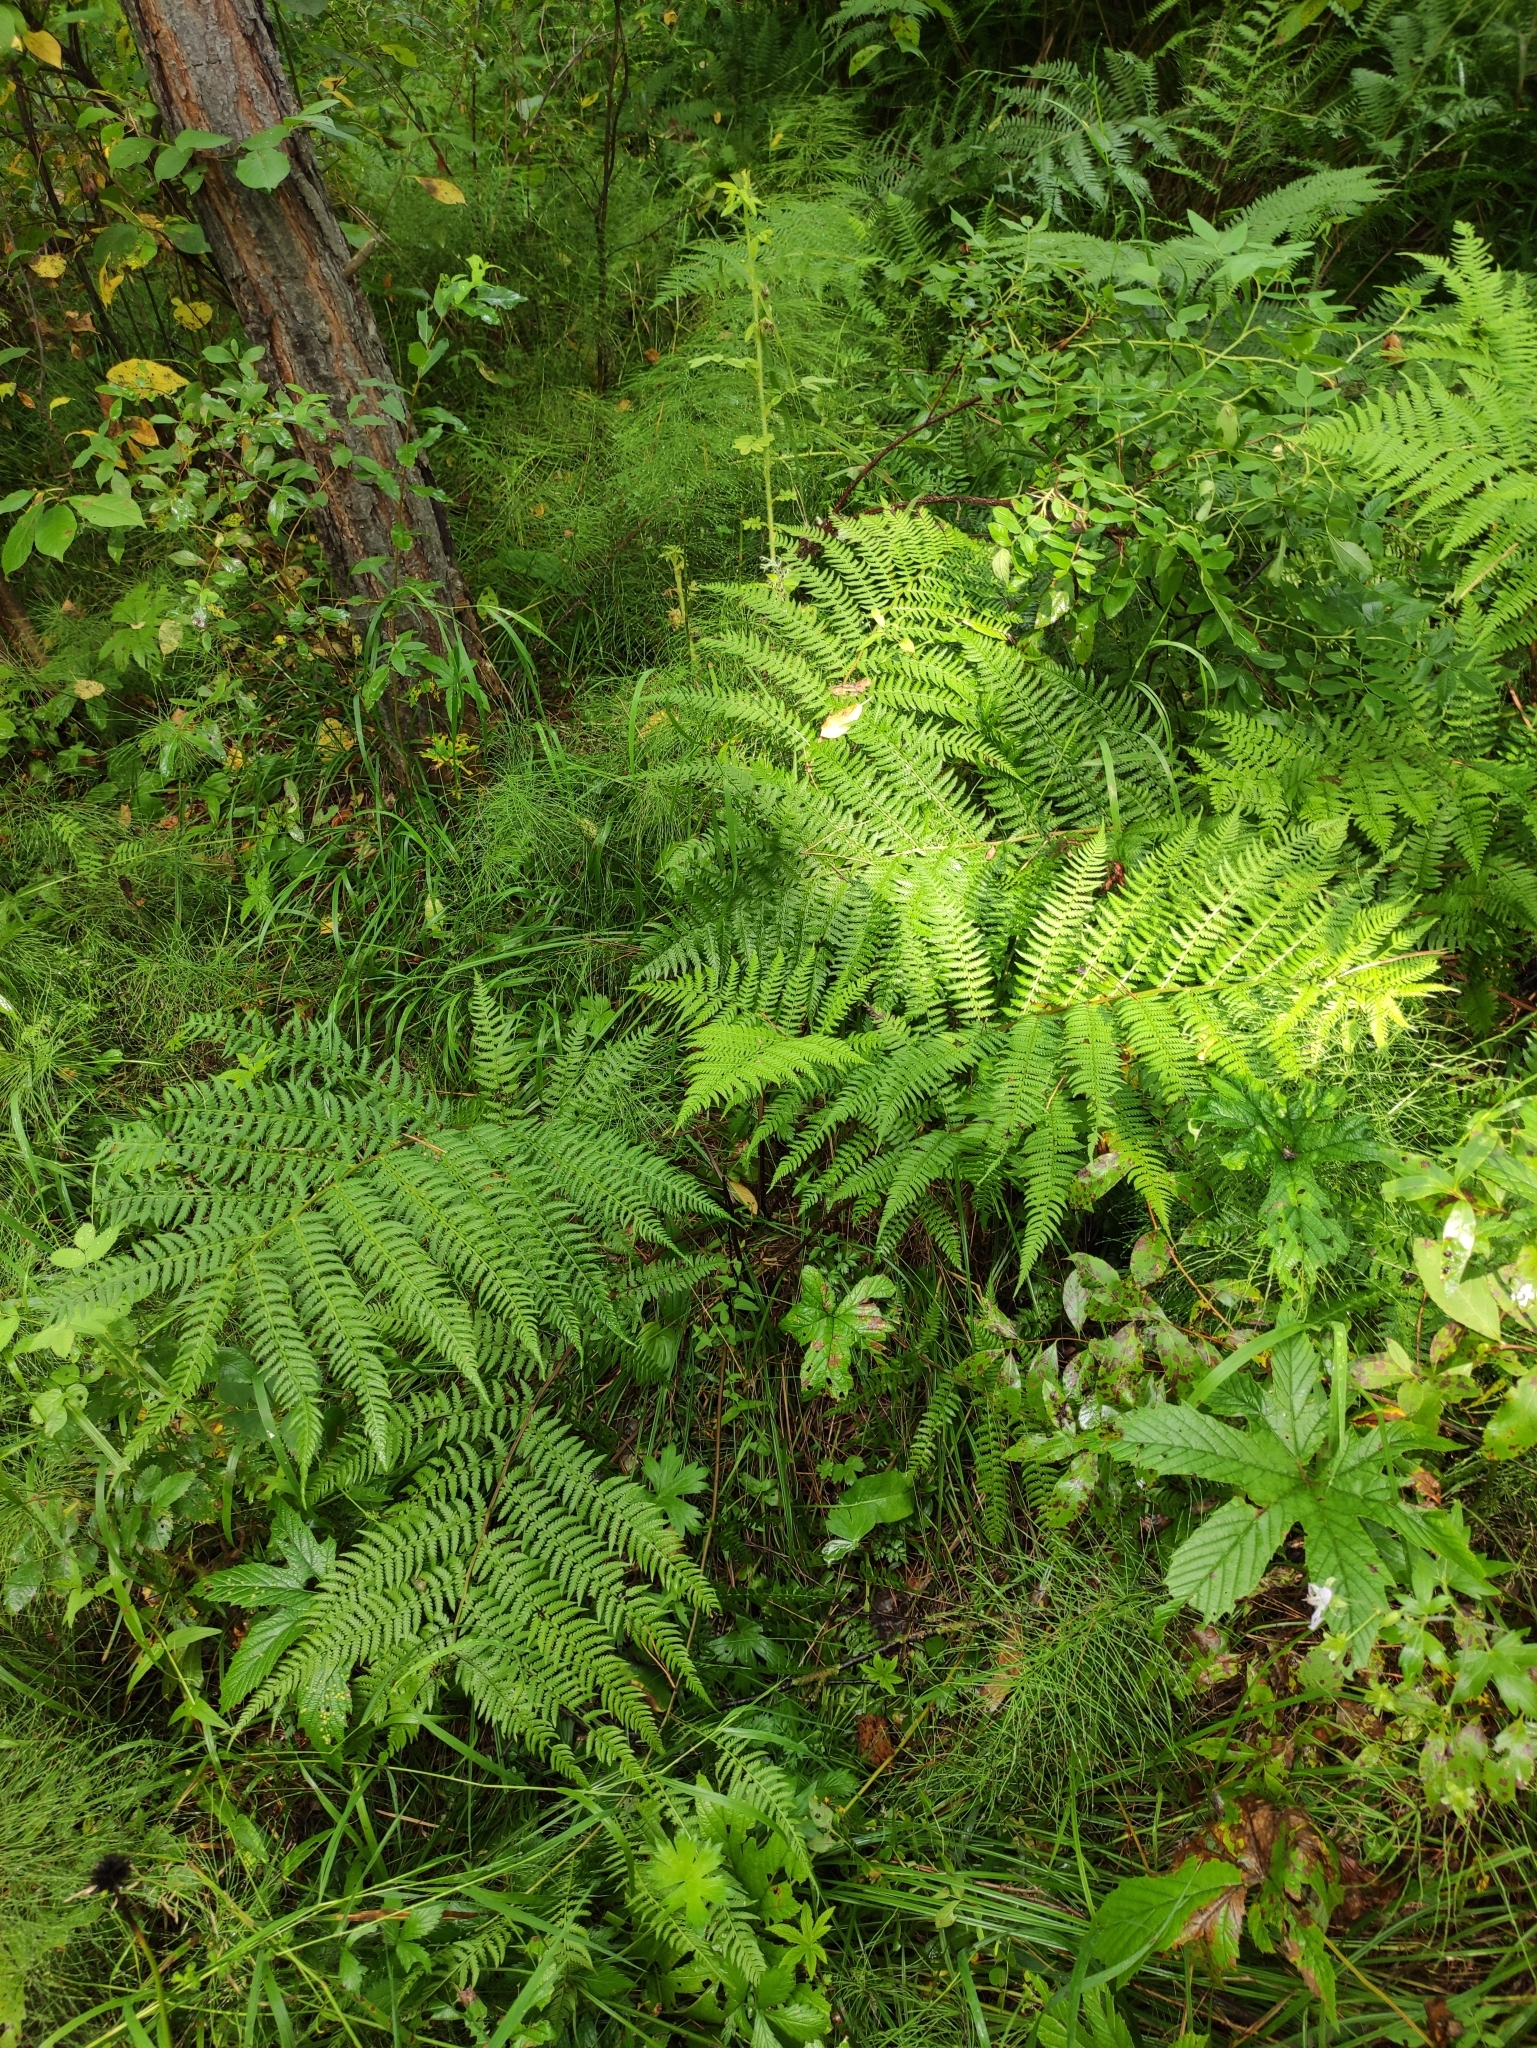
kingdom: Plantae
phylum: Tracheophyta
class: Polypodiopsida
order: Polypodiales
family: Athyriaceae
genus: Athyrium
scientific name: Athyrium filix-femina
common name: Lady fern
